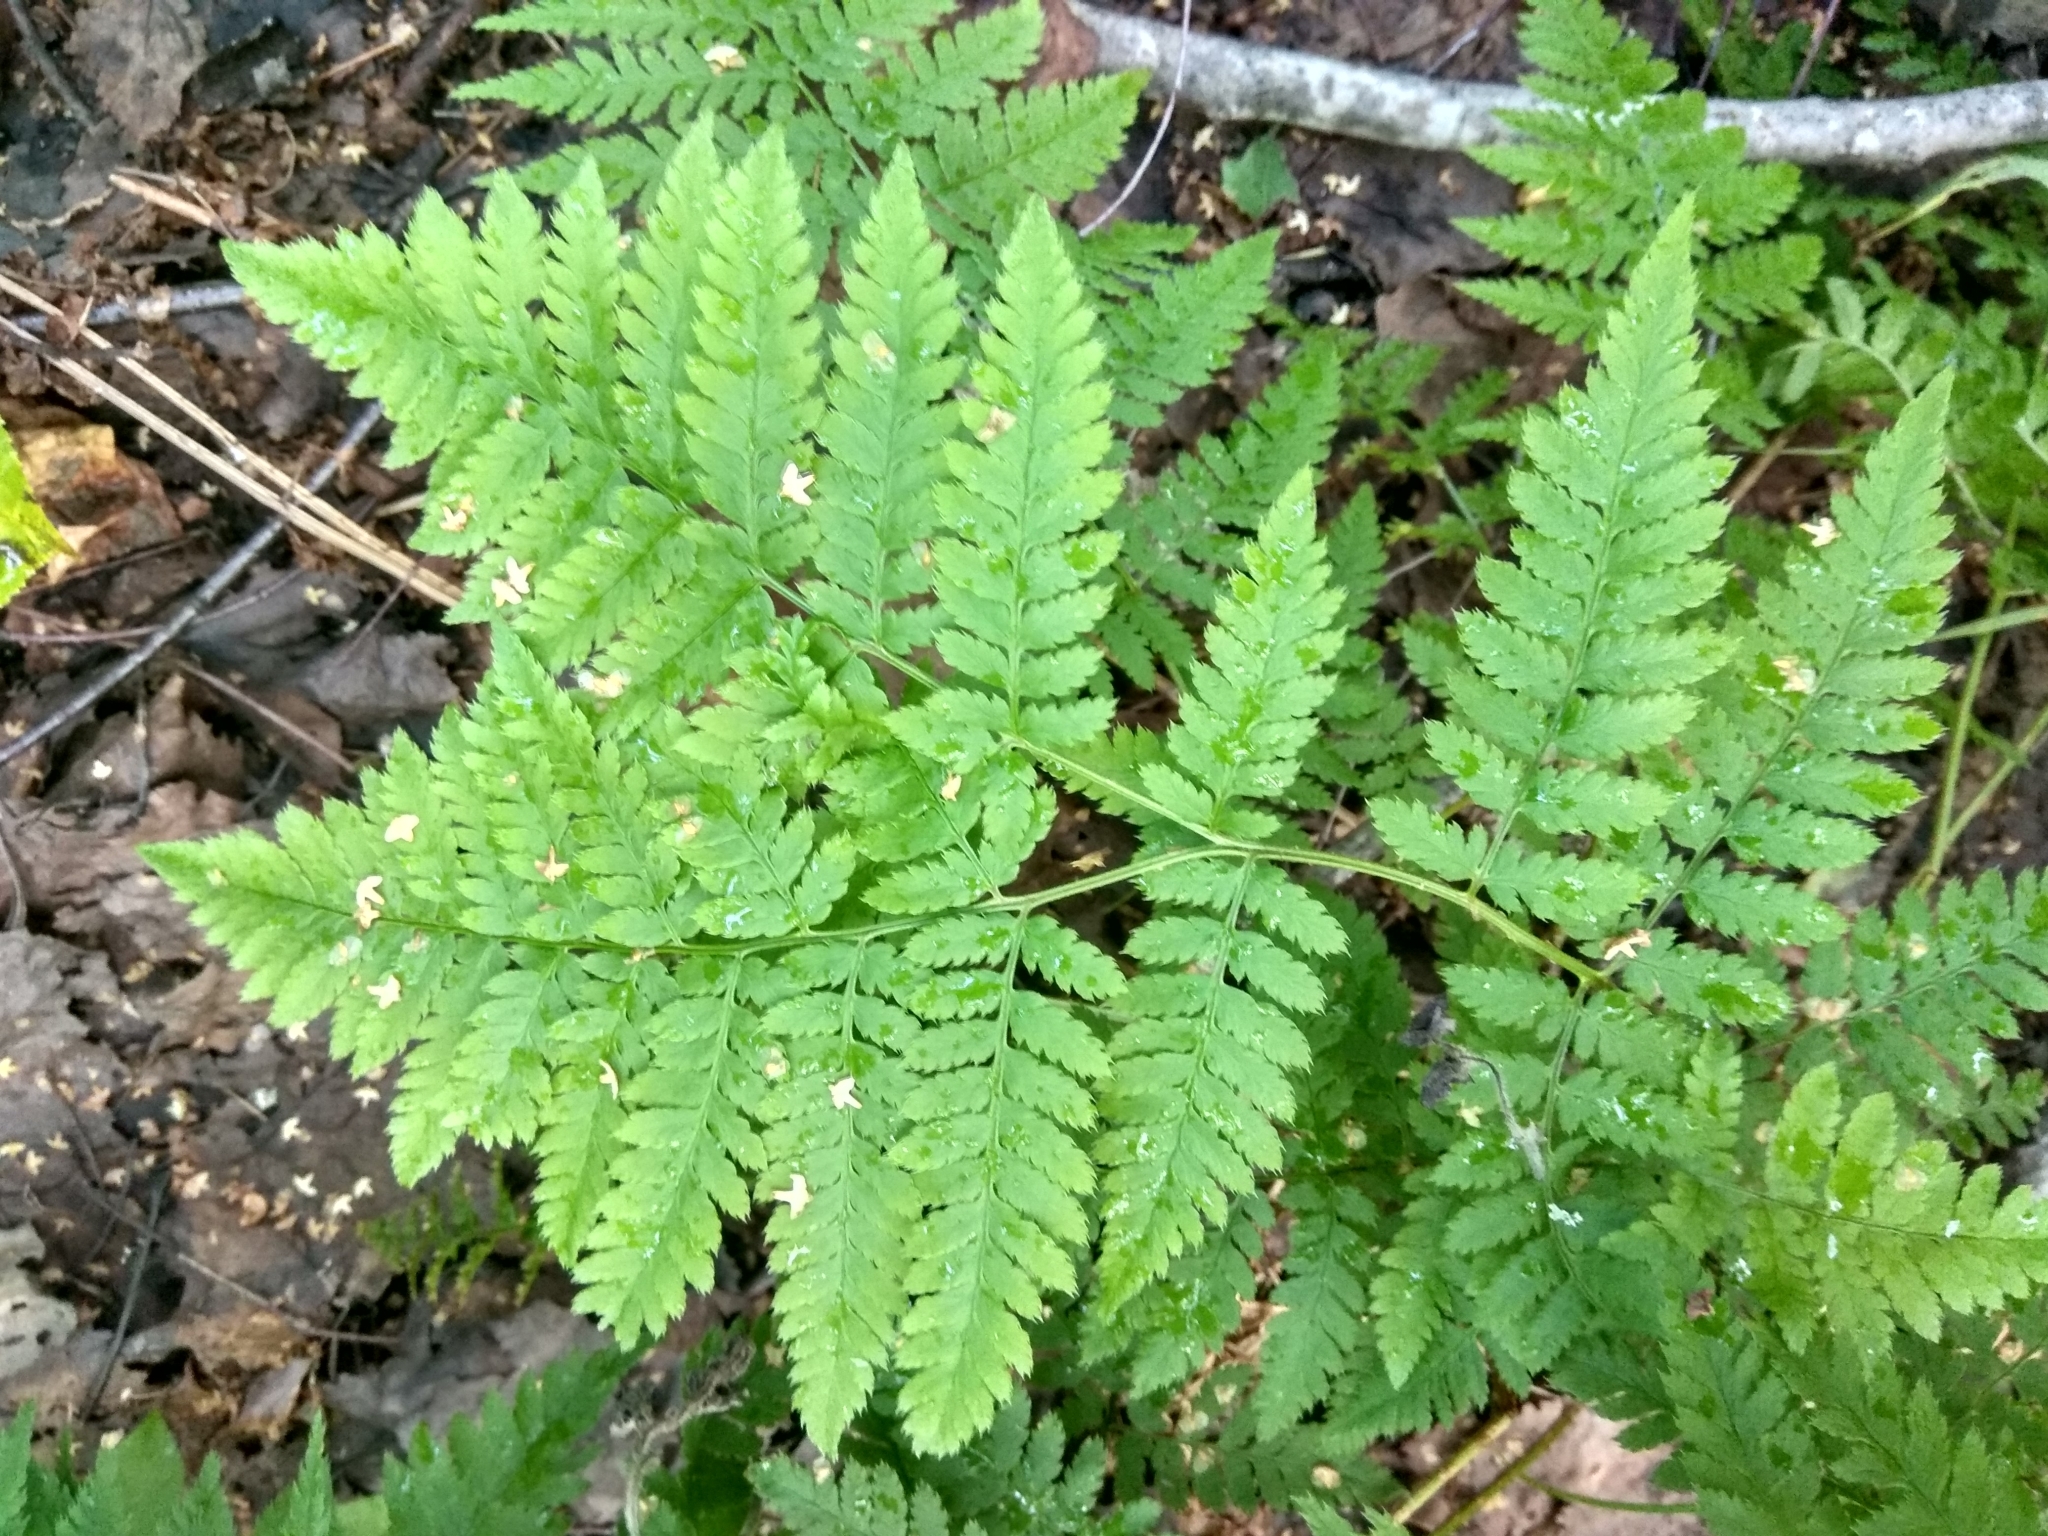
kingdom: Plantae
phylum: Tracheophyta
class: Polypodiopsida
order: Polypodiales
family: Dryopteridaceae
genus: Dryopteris
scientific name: Dryopteris carthusiana
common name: Narrow buckler-fern
